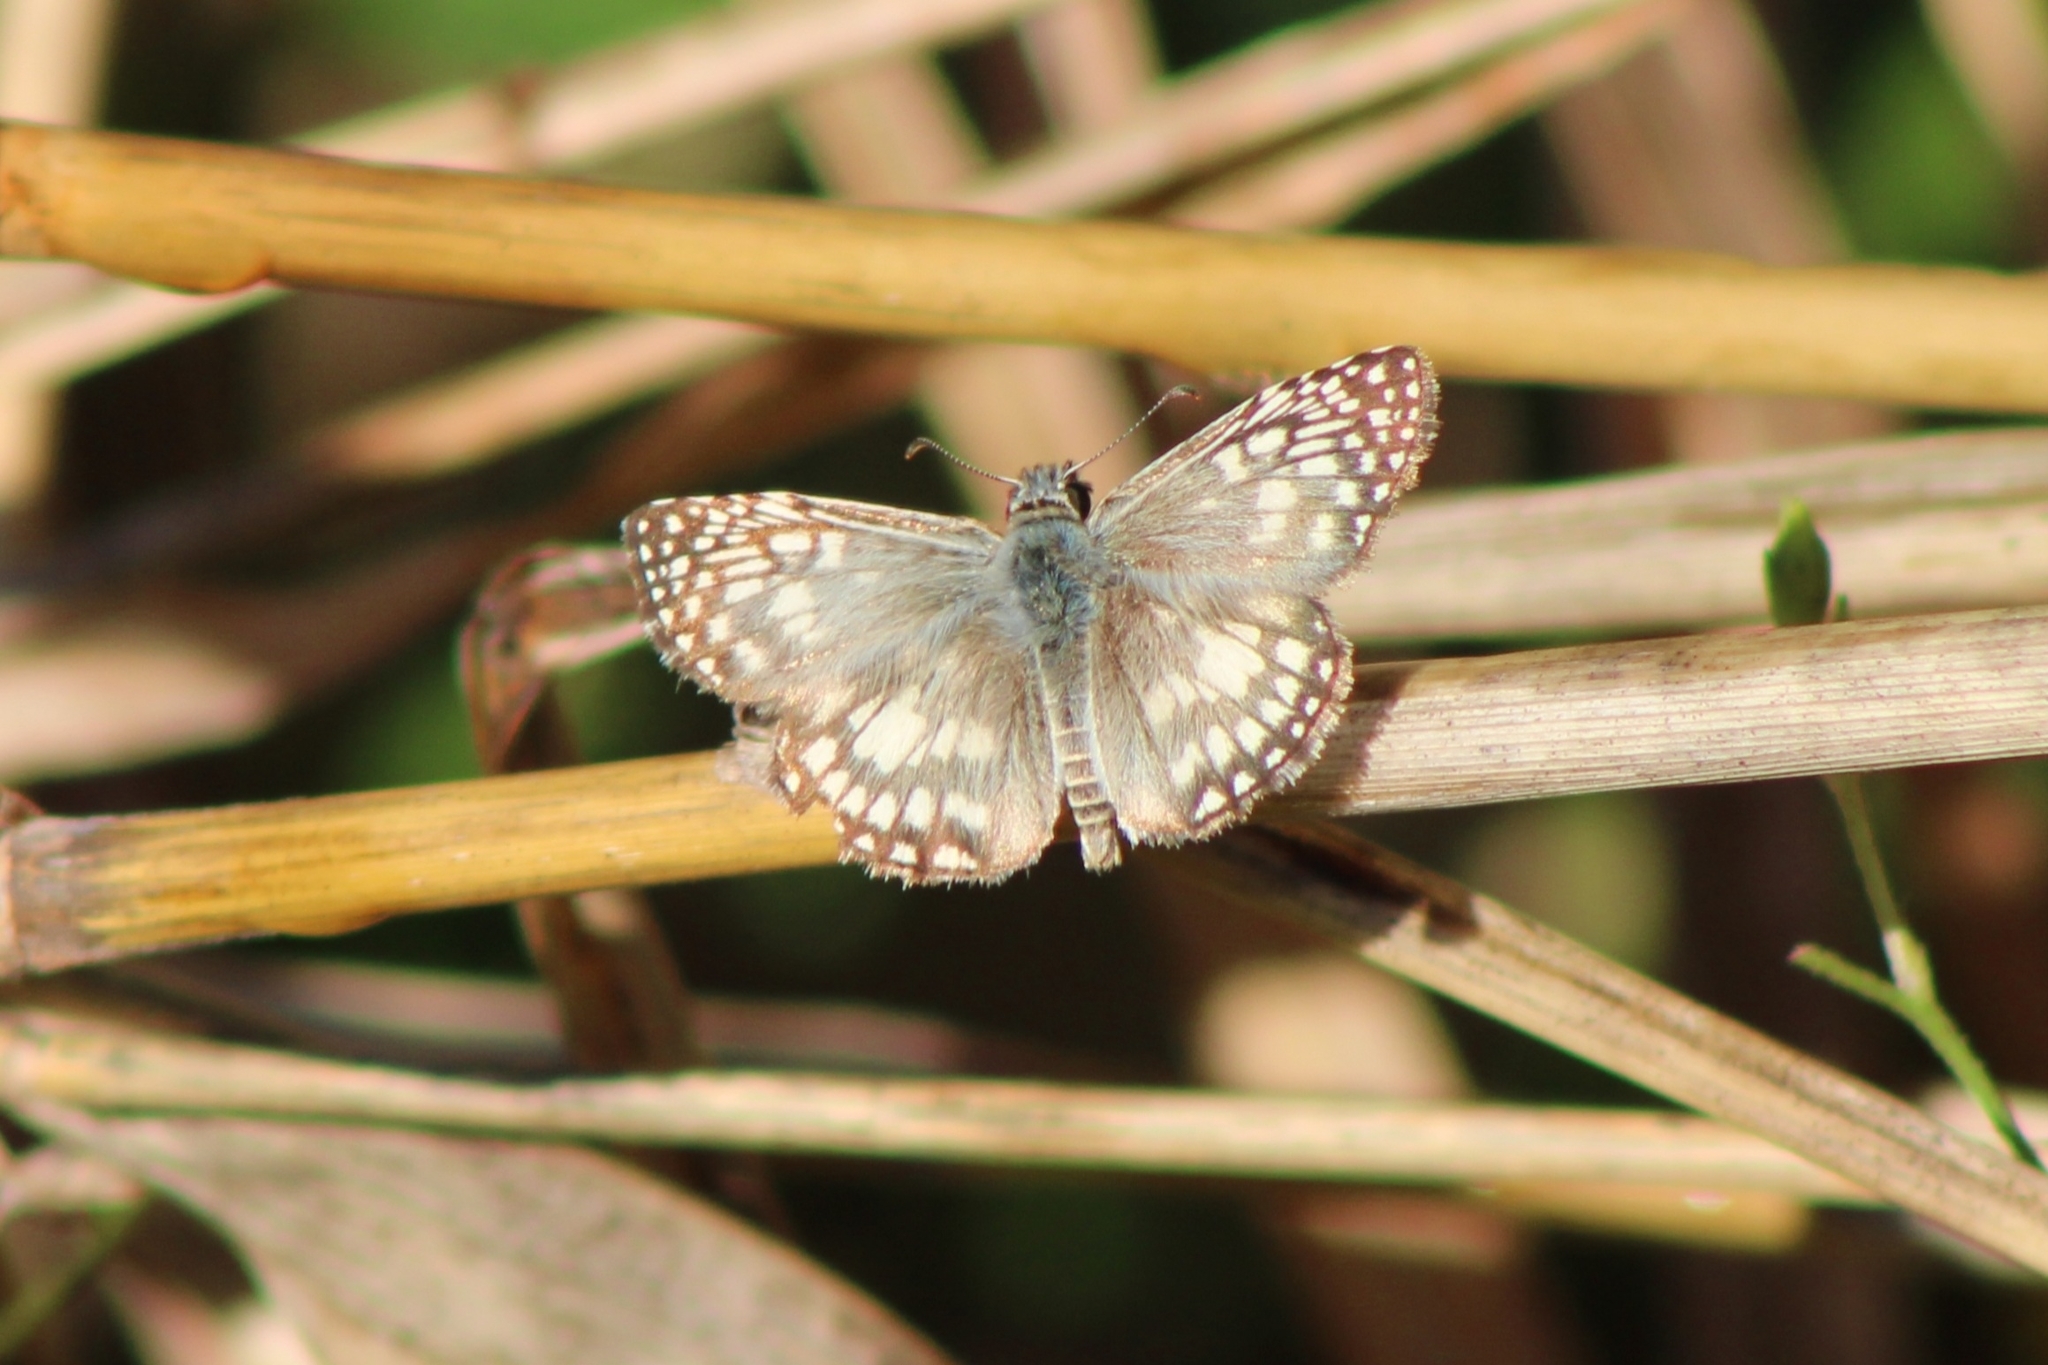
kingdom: Animalia
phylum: Arthropoda
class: Insecta
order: Lepidoptera
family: Hesperiidae
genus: Pyrgus
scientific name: Pyrgus oileus
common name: Tropical checkered-skipper
